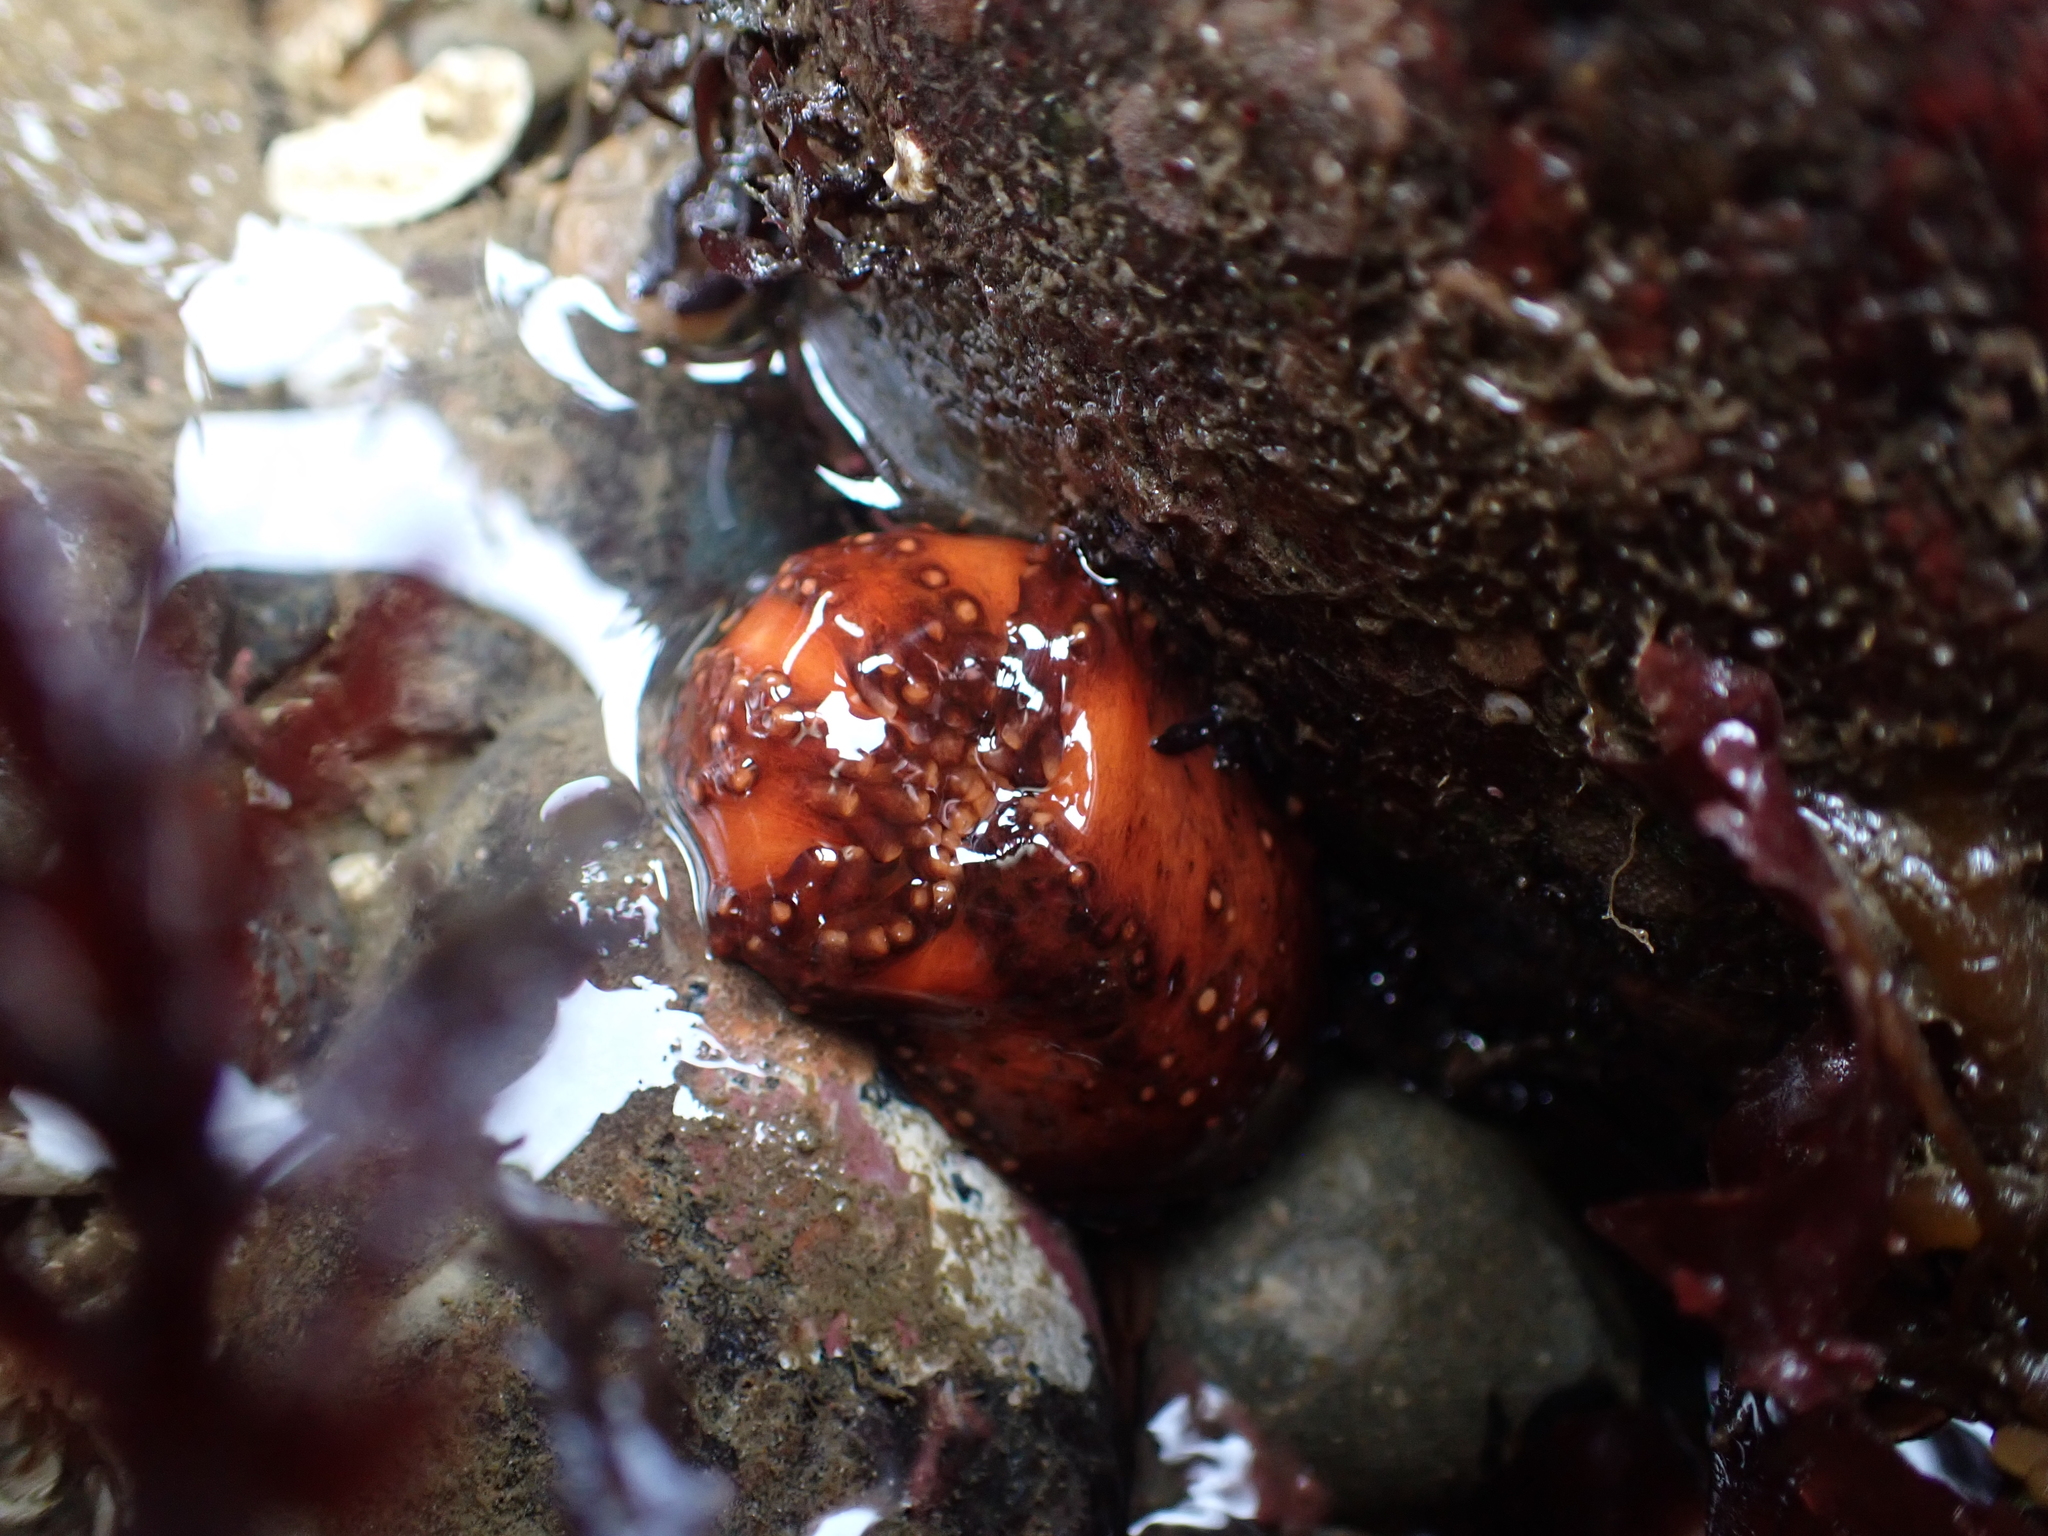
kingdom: Animalia
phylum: Echinodermata
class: Holothuroidea
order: Dendrochirotida
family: Cucumariidae
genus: Cucumaria
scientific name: Cucumaria miniata
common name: Orange sea cucumber
